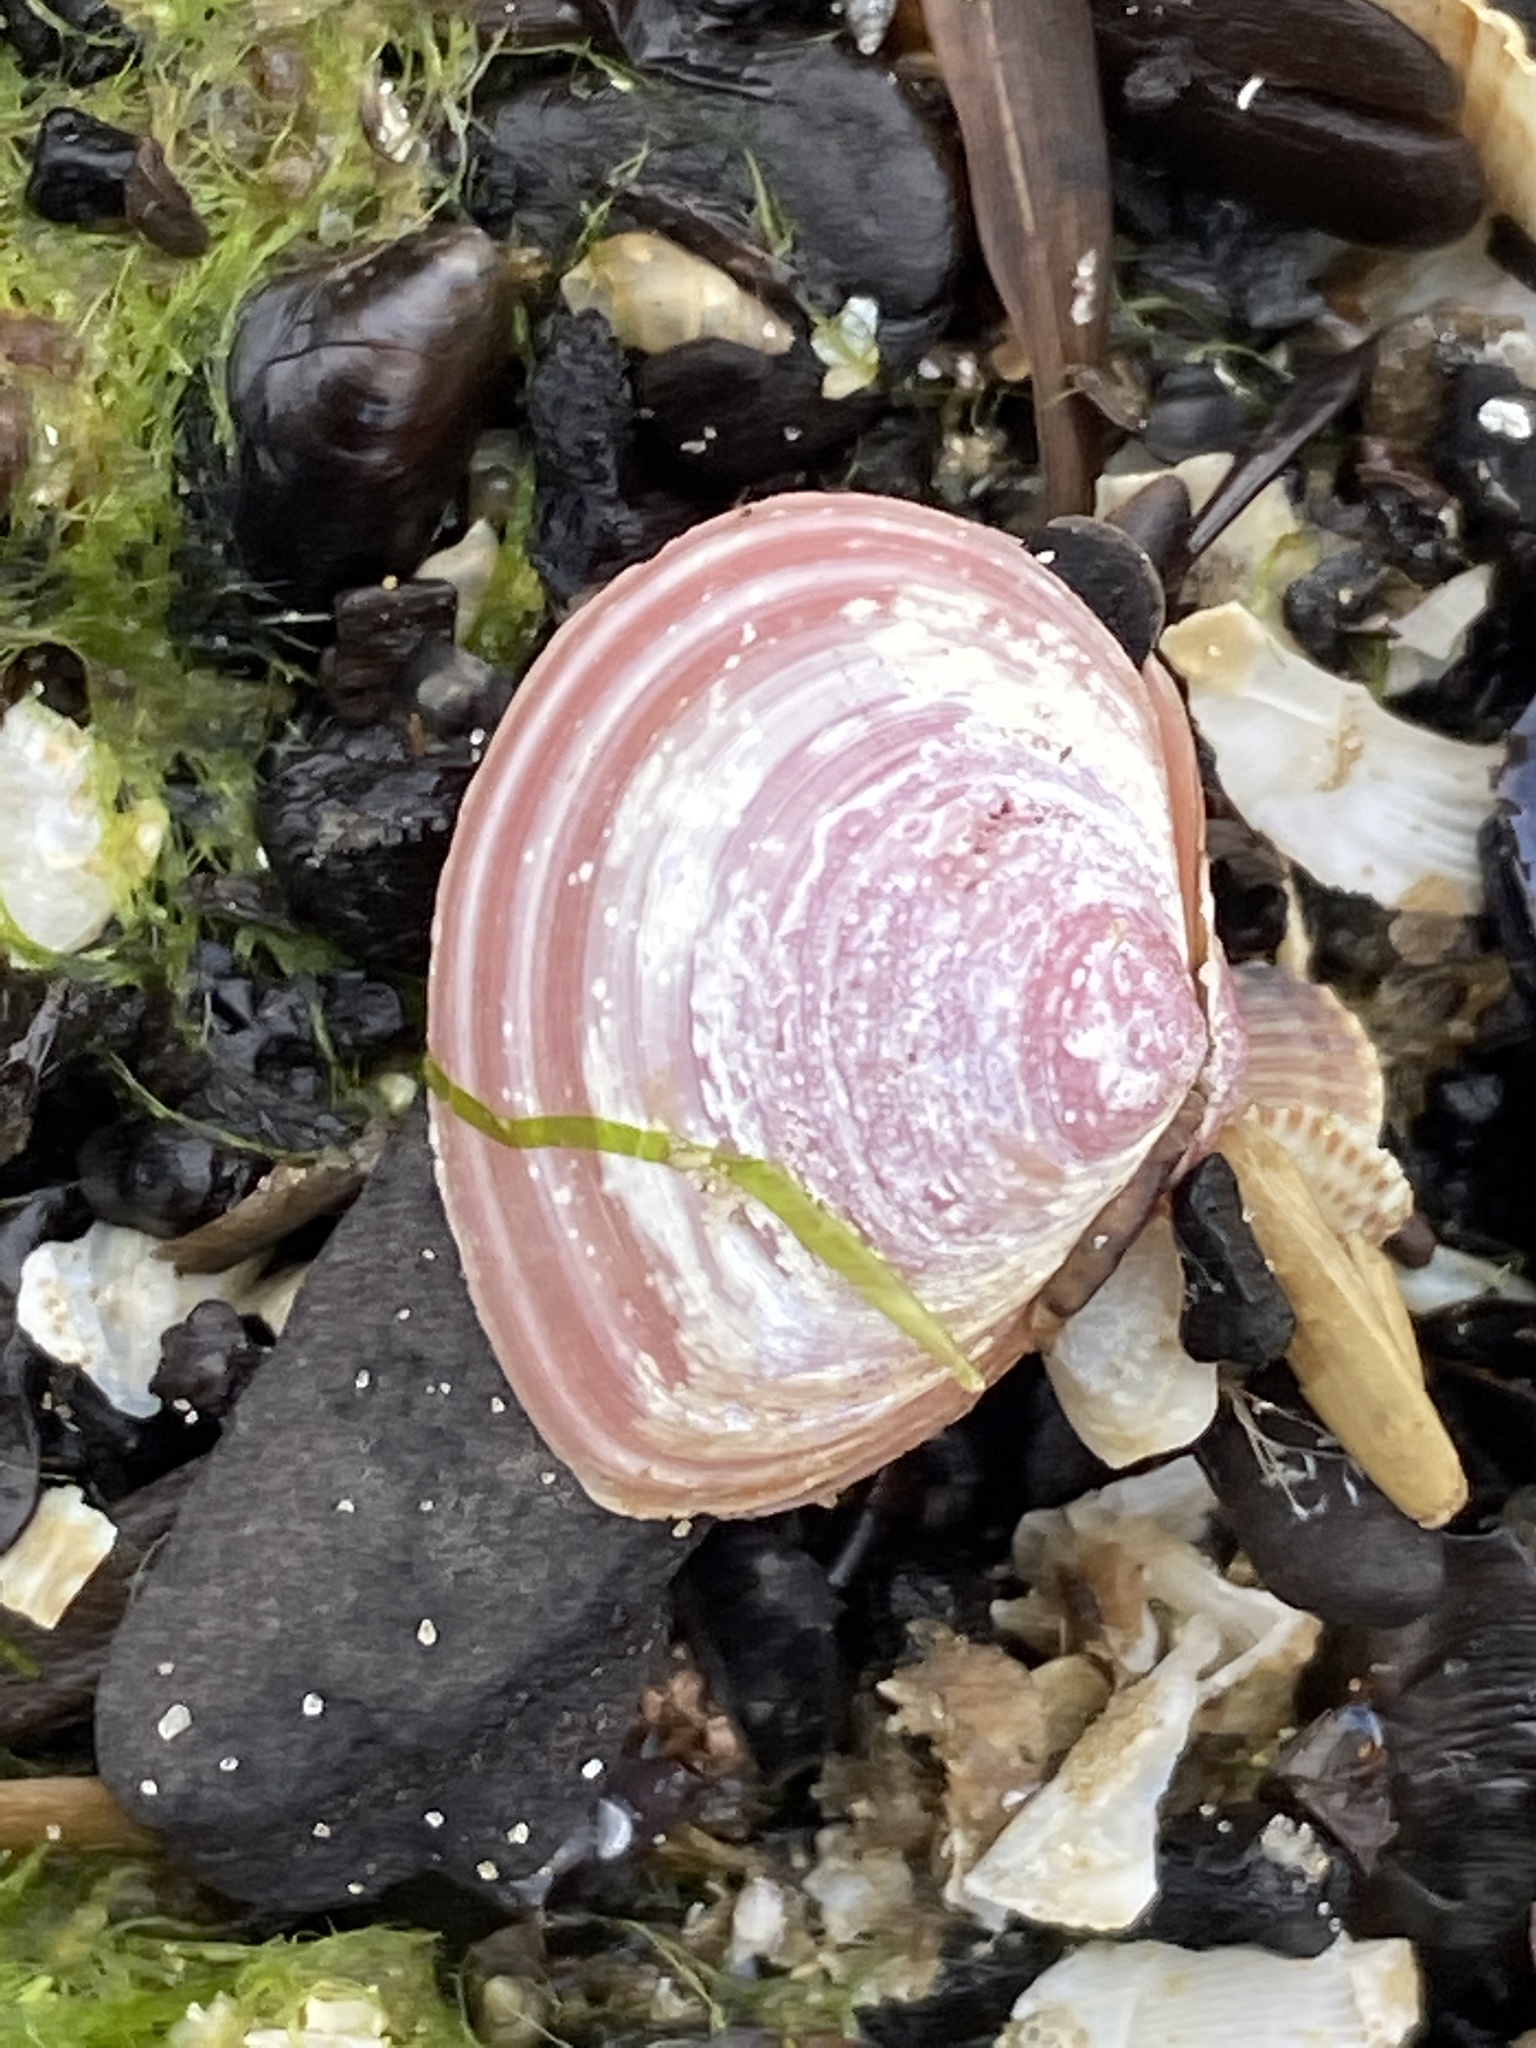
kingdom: Animalia
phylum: Mollusca
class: Bivalvia
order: Cardiida
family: Tellinidae
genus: Macoma
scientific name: Macoma balthica
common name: Baltic tellin
